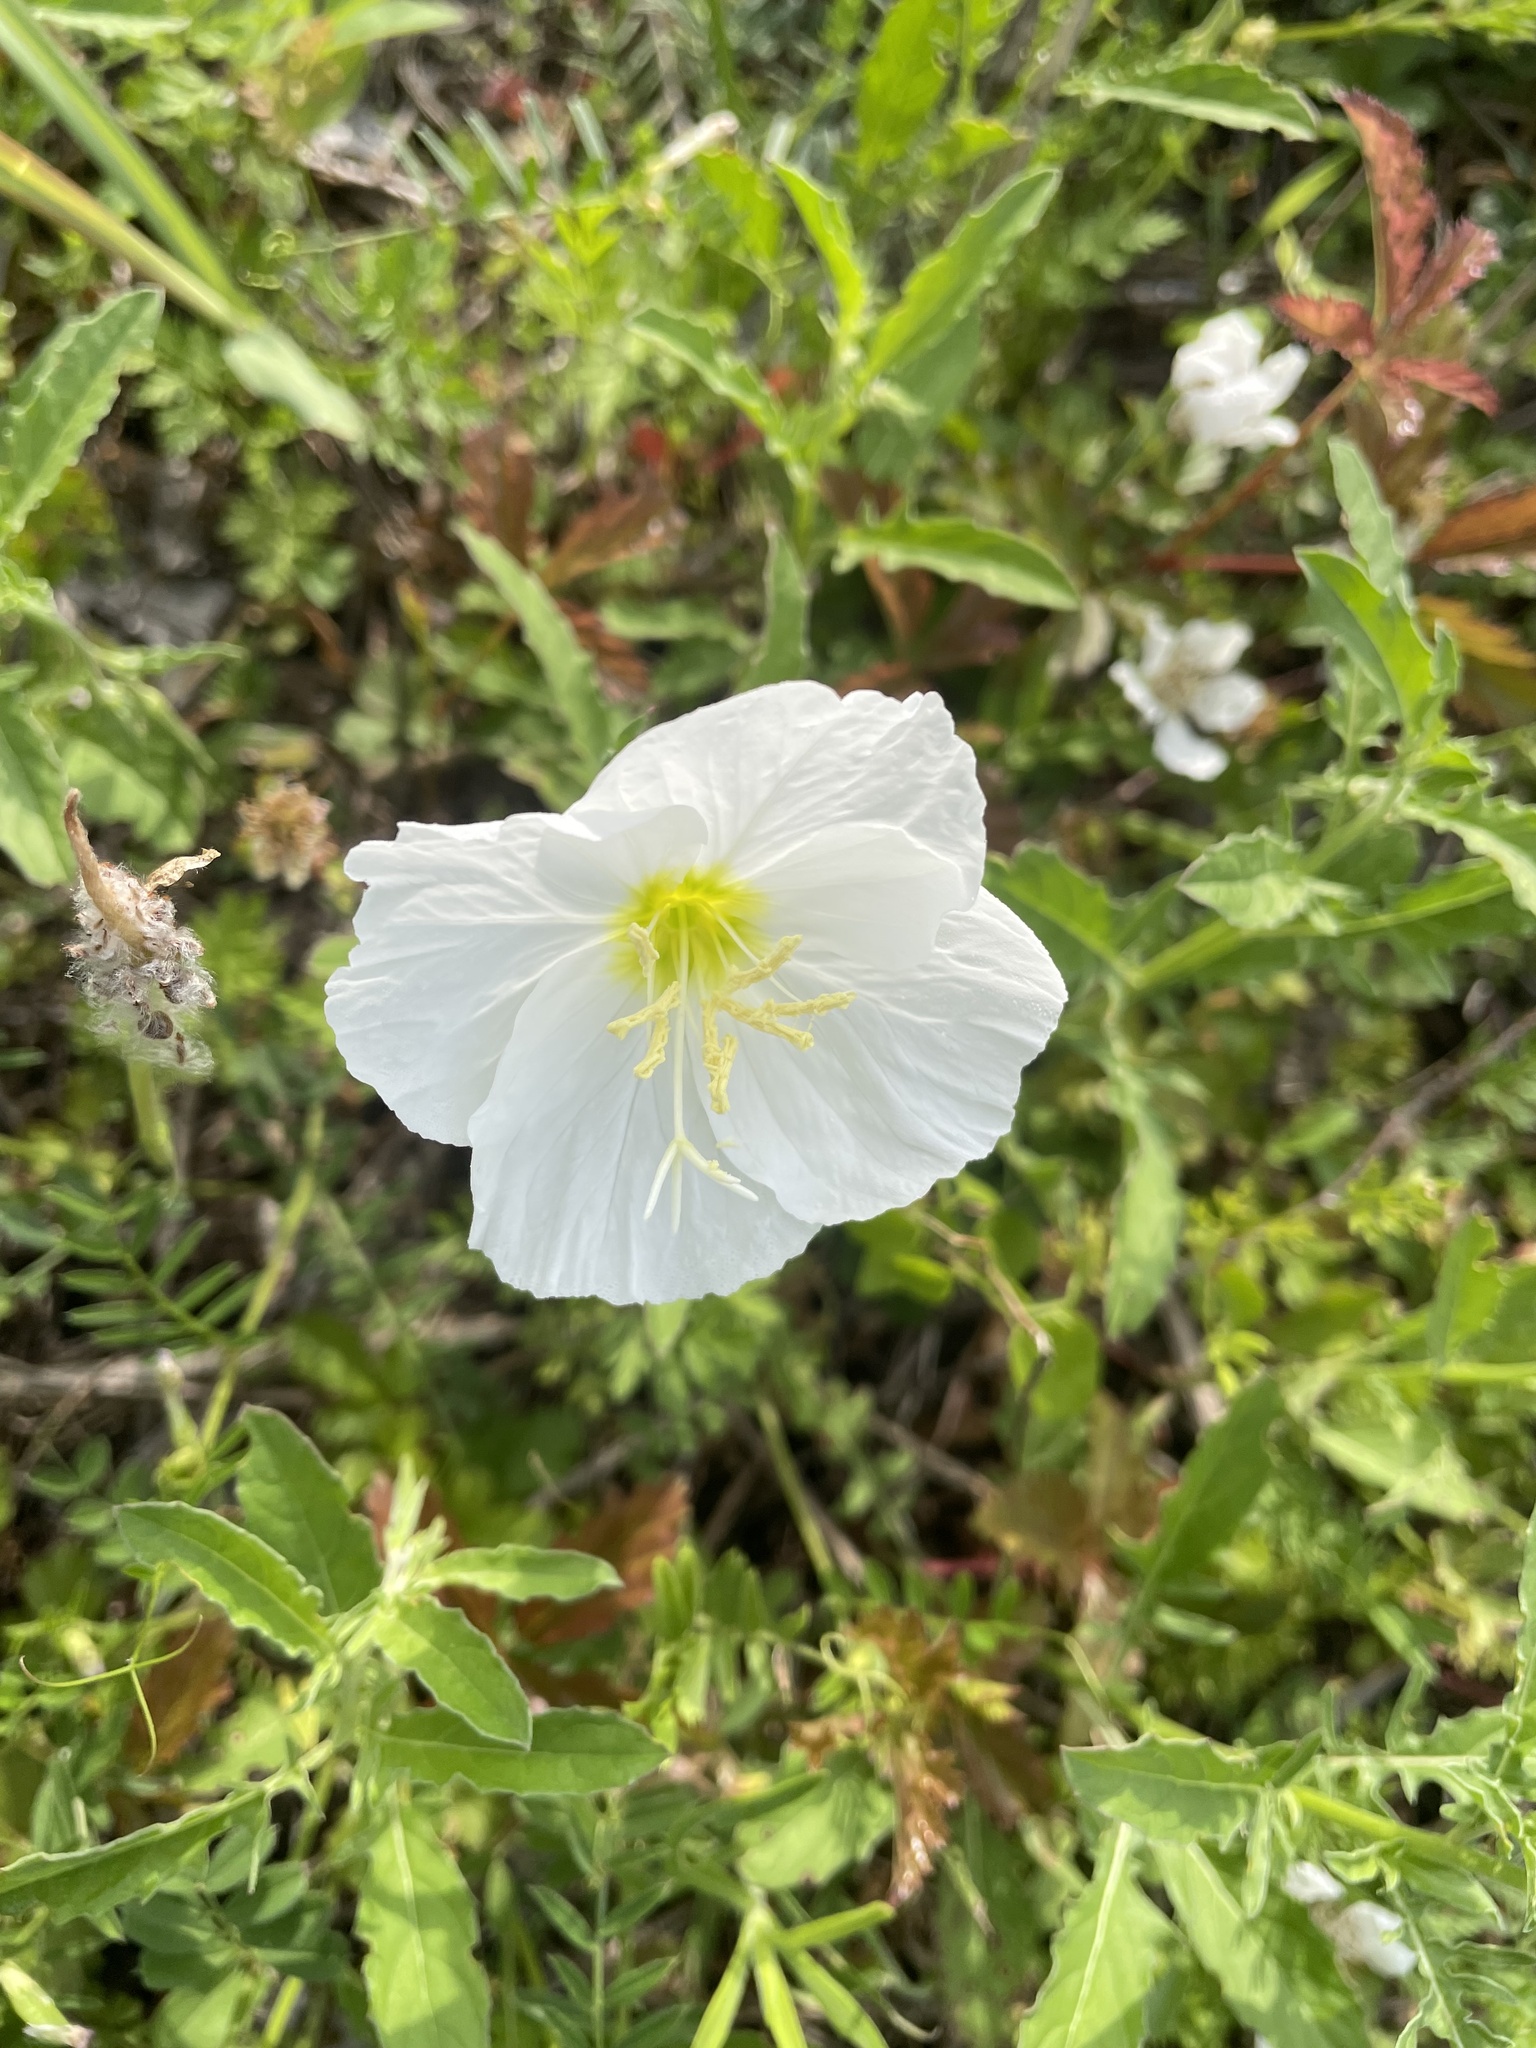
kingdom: Plantae
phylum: Tracheophyta
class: Magnoliopsida
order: Myrtales
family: Onagraceae
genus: Oenothera
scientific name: Oenothera speciosa
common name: White evening-primrose
